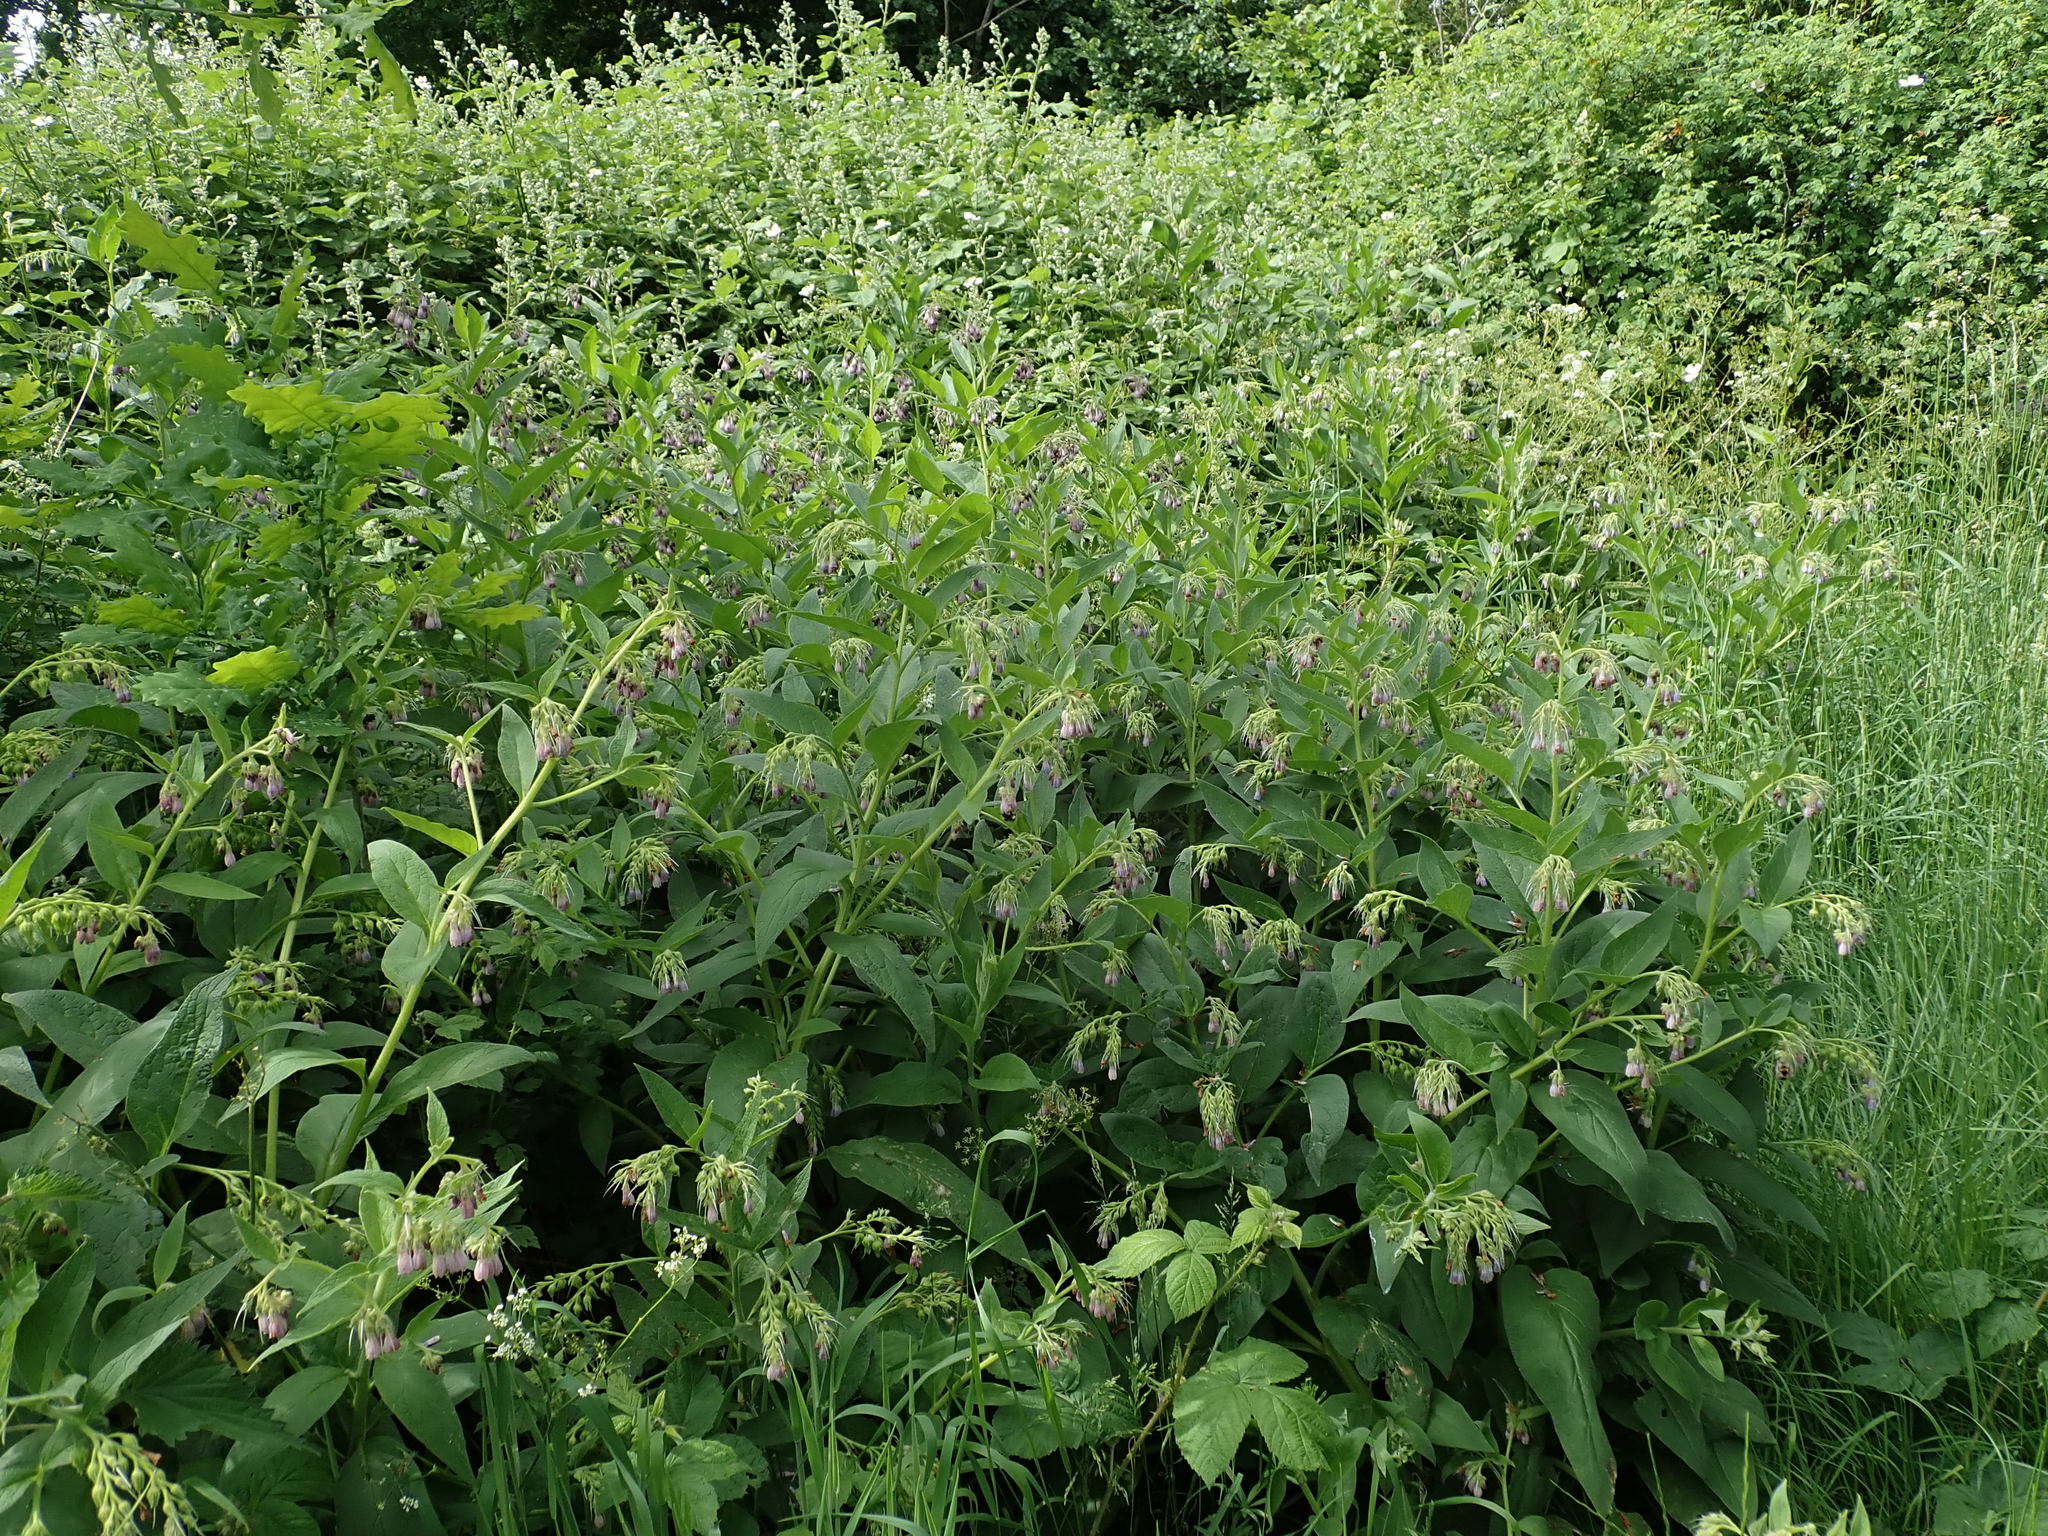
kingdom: Plantae
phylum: Tracheophyta
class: Magnoliopsida
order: Boraginales
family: Boraginaceae
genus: Symphytum
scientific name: Symphytum uplandicum
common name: Russian comfrey
